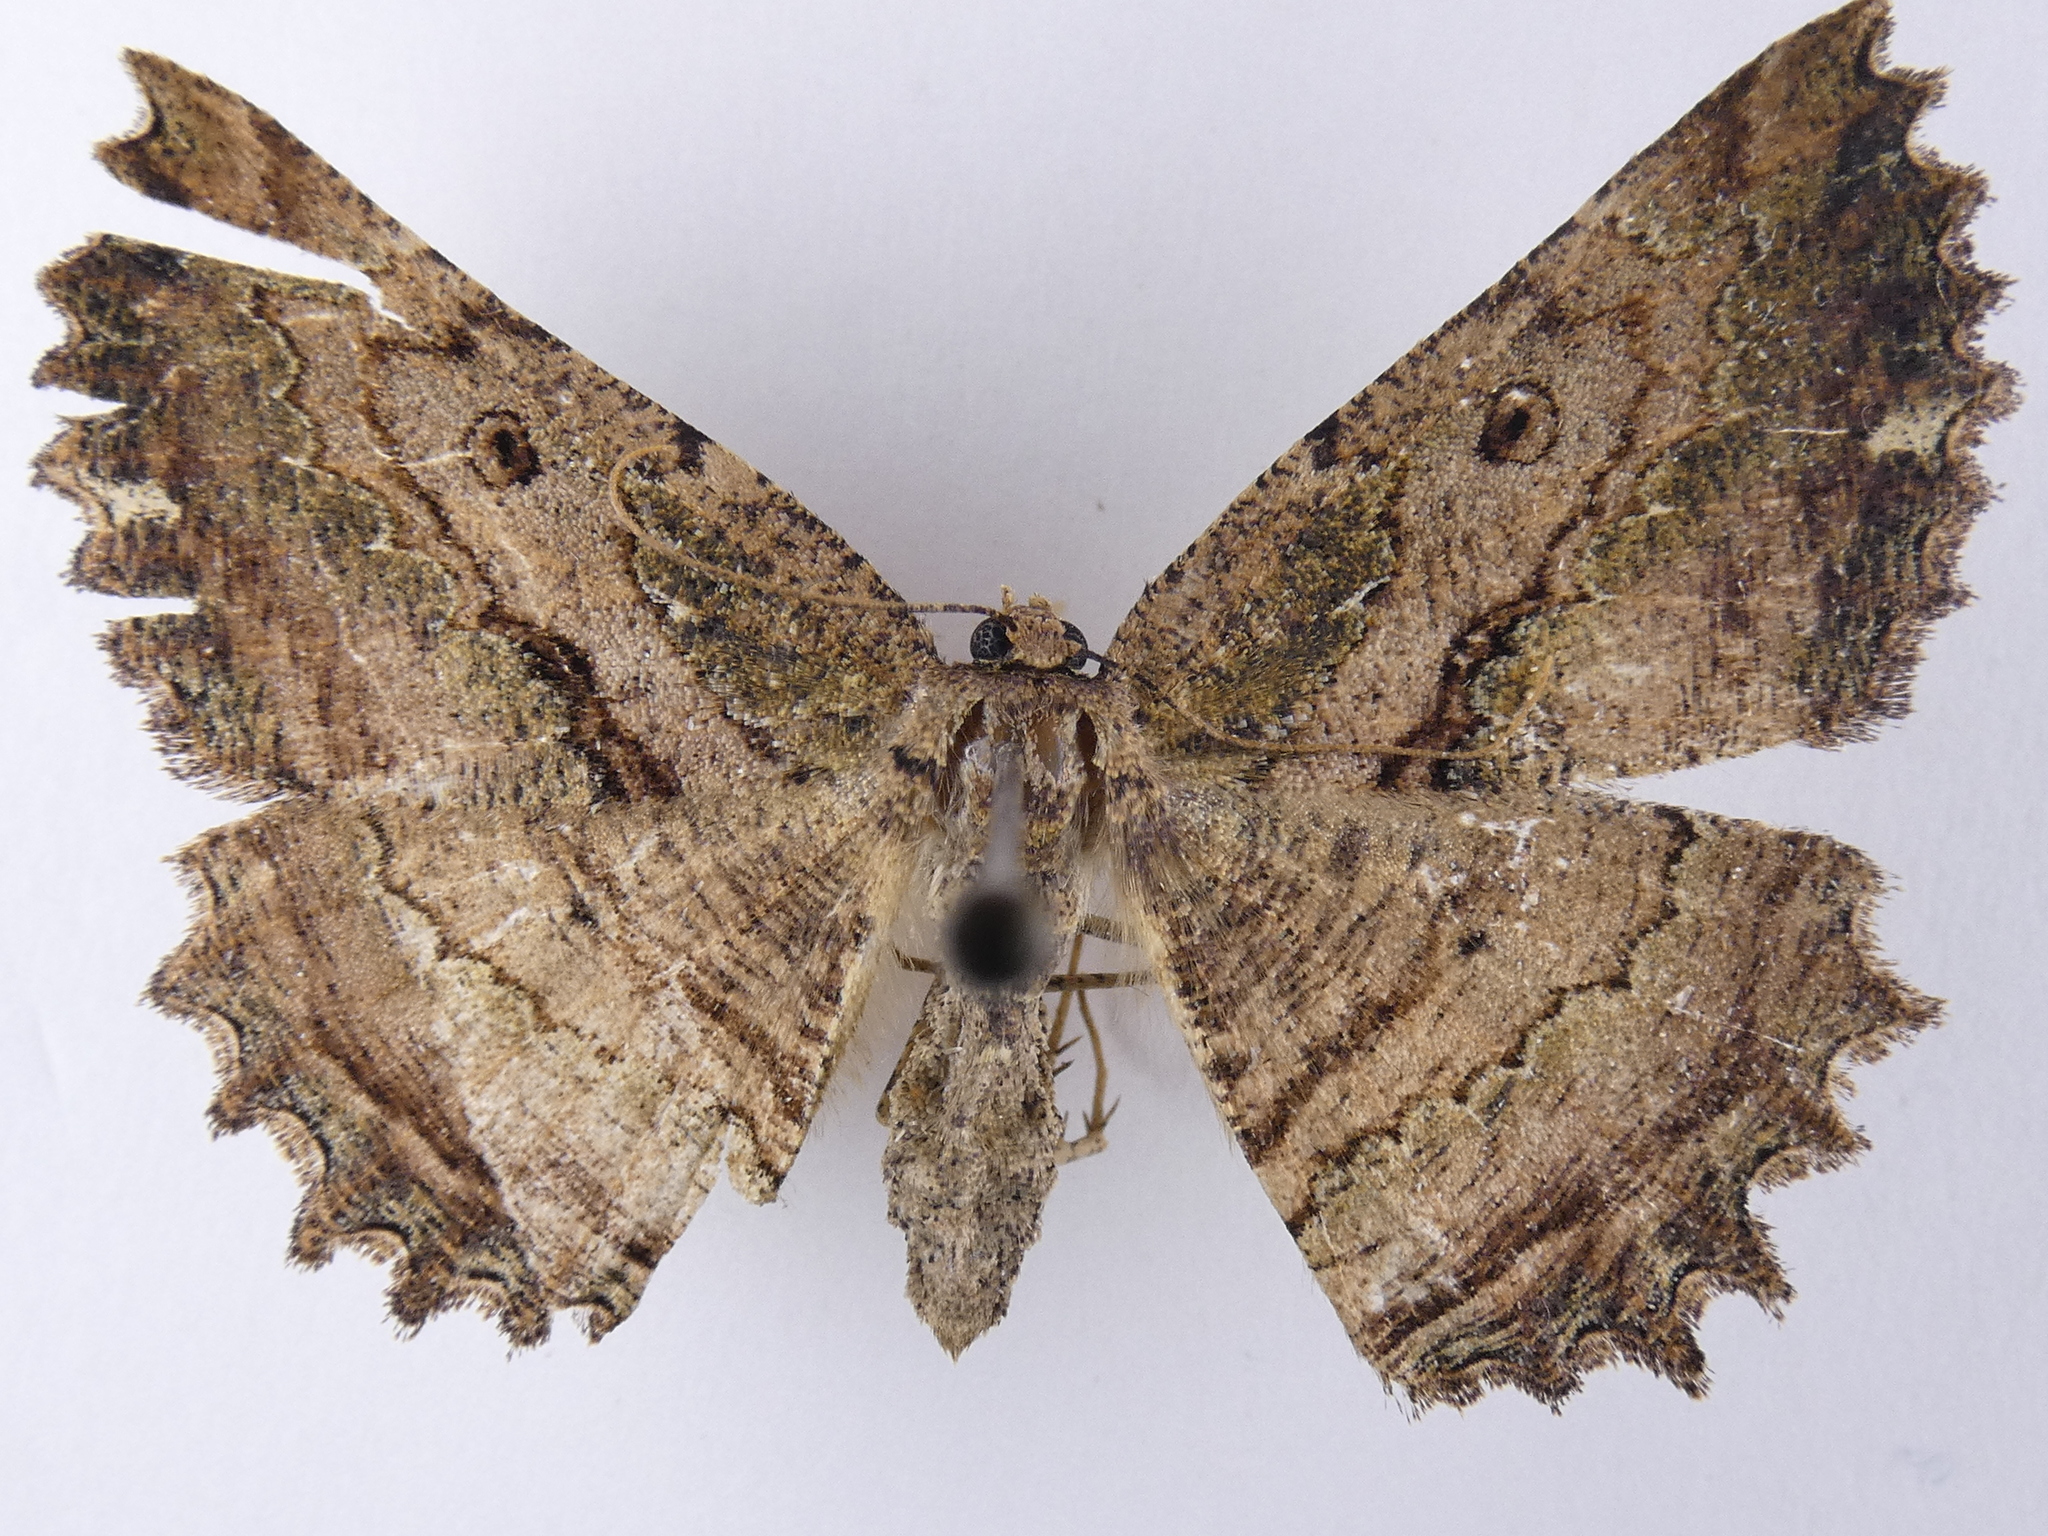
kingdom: Animalia
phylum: Arthropoda
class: Insecta
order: Lepidoptera
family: Geometridae
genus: Gellonia
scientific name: Gellonia pannularia
